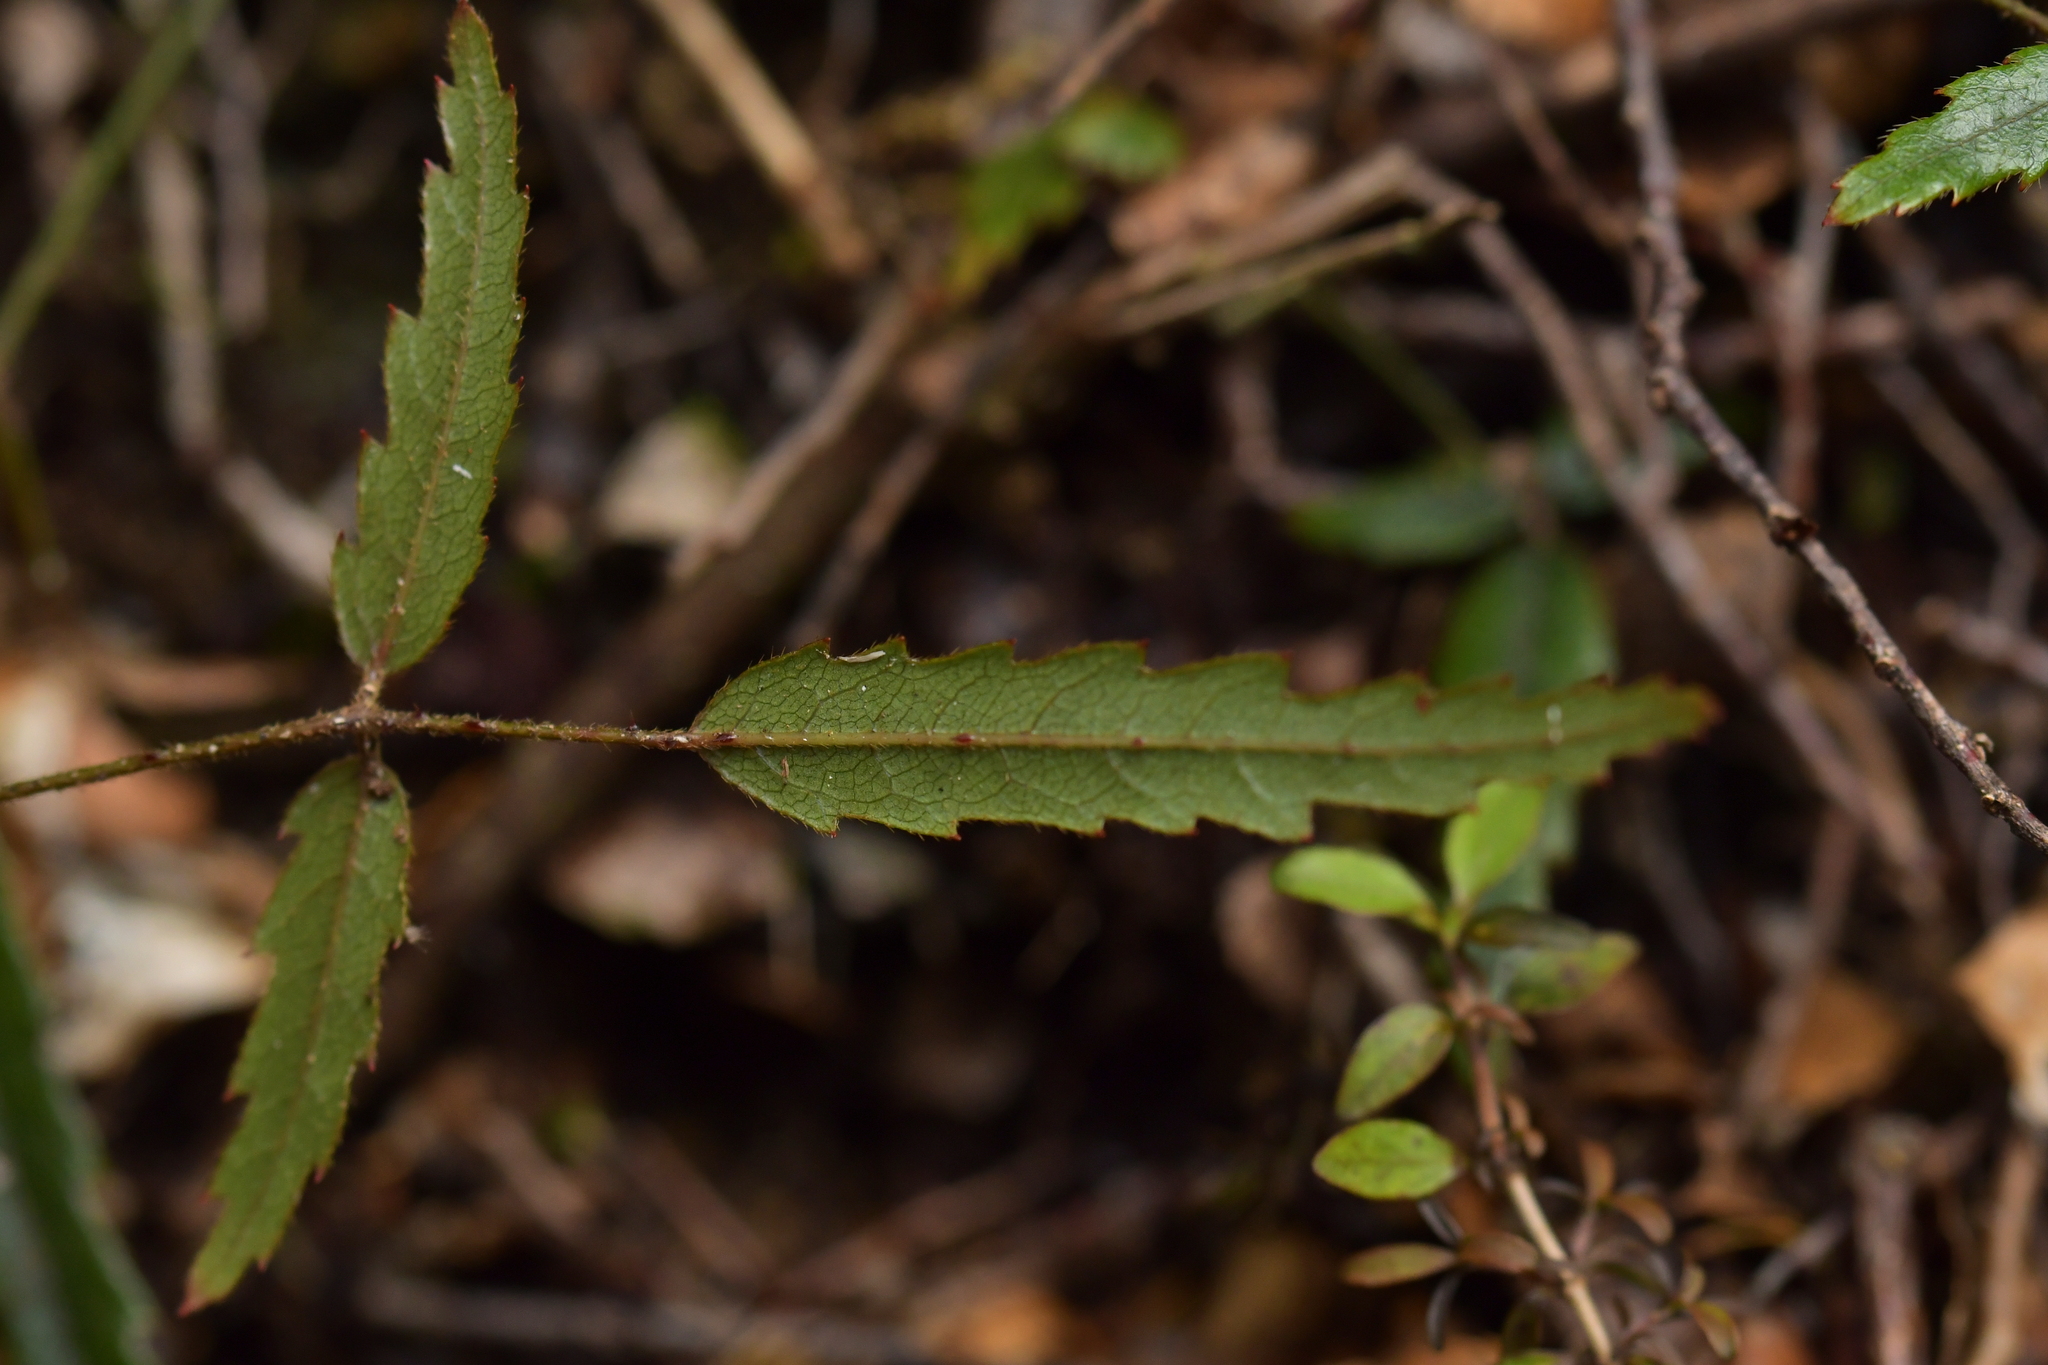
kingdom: Plantae
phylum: Tracheophyta
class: Magnoliopsida
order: Rosales
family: Rosaceae
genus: Rubus
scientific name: Rubus schmidelioides
